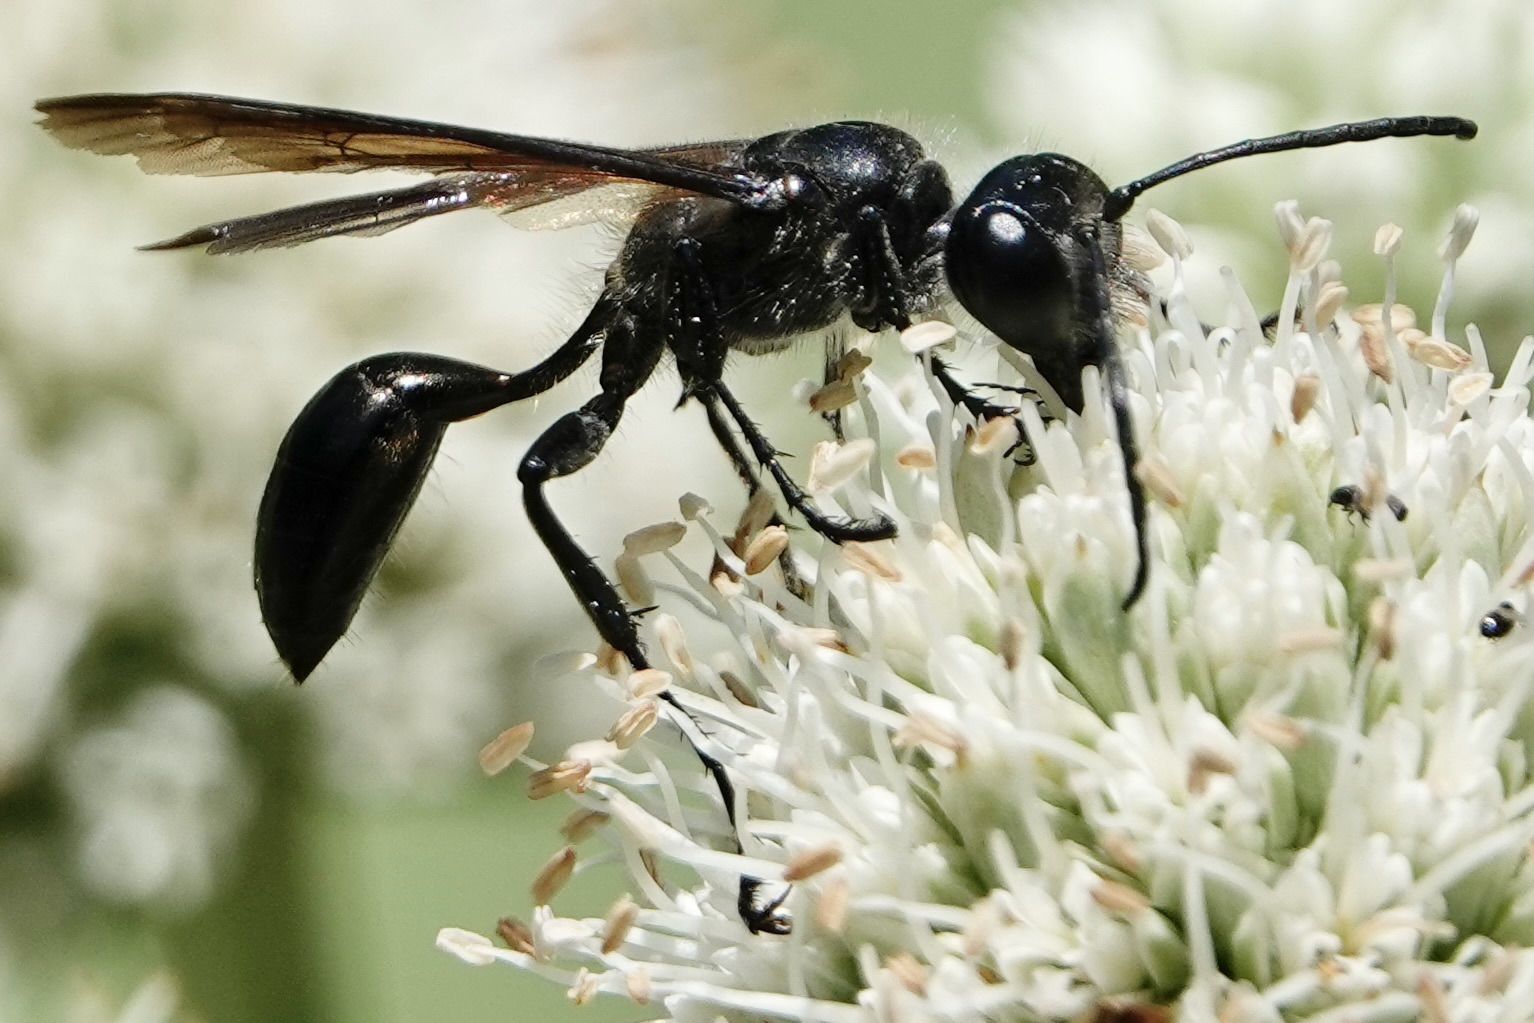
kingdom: Animalia
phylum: Arthropoda
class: Insecta
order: Hymenoptera
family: Sphecidae
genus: Isodontia
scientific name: Isodontia mexicana
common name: Mud dauber
